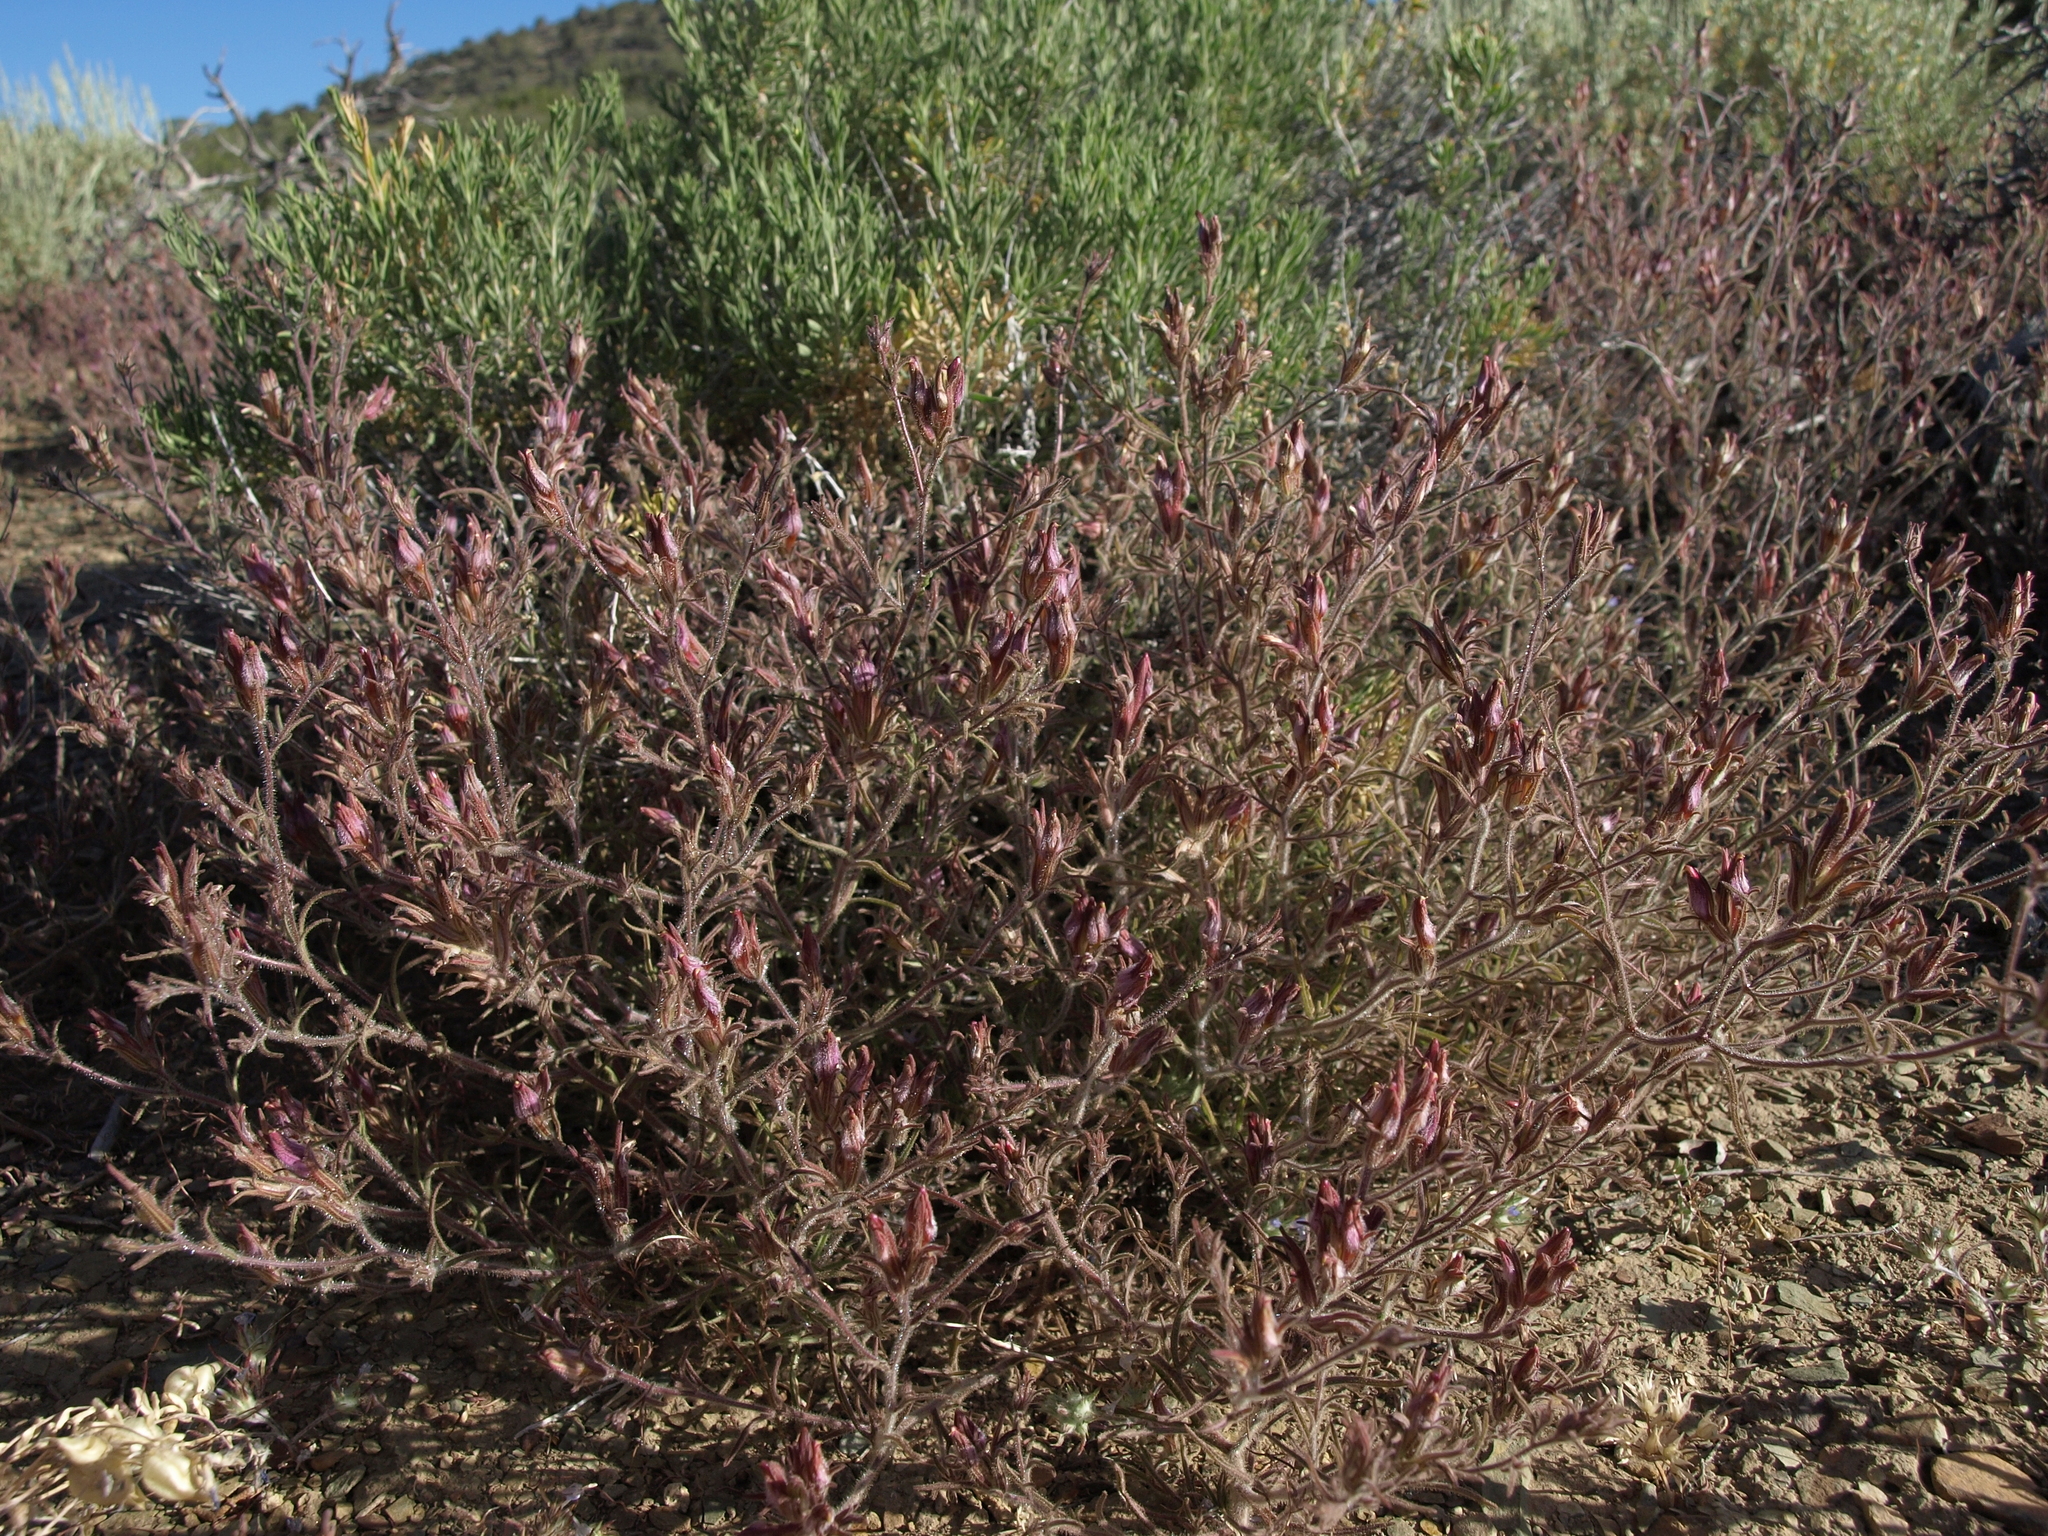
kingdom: Plantae
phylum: Tracheophyta
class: Magnoliopsida
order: Lamiales
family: Orobanchaceae
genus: Cordylanthus
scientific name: Cordylanthus kingii
